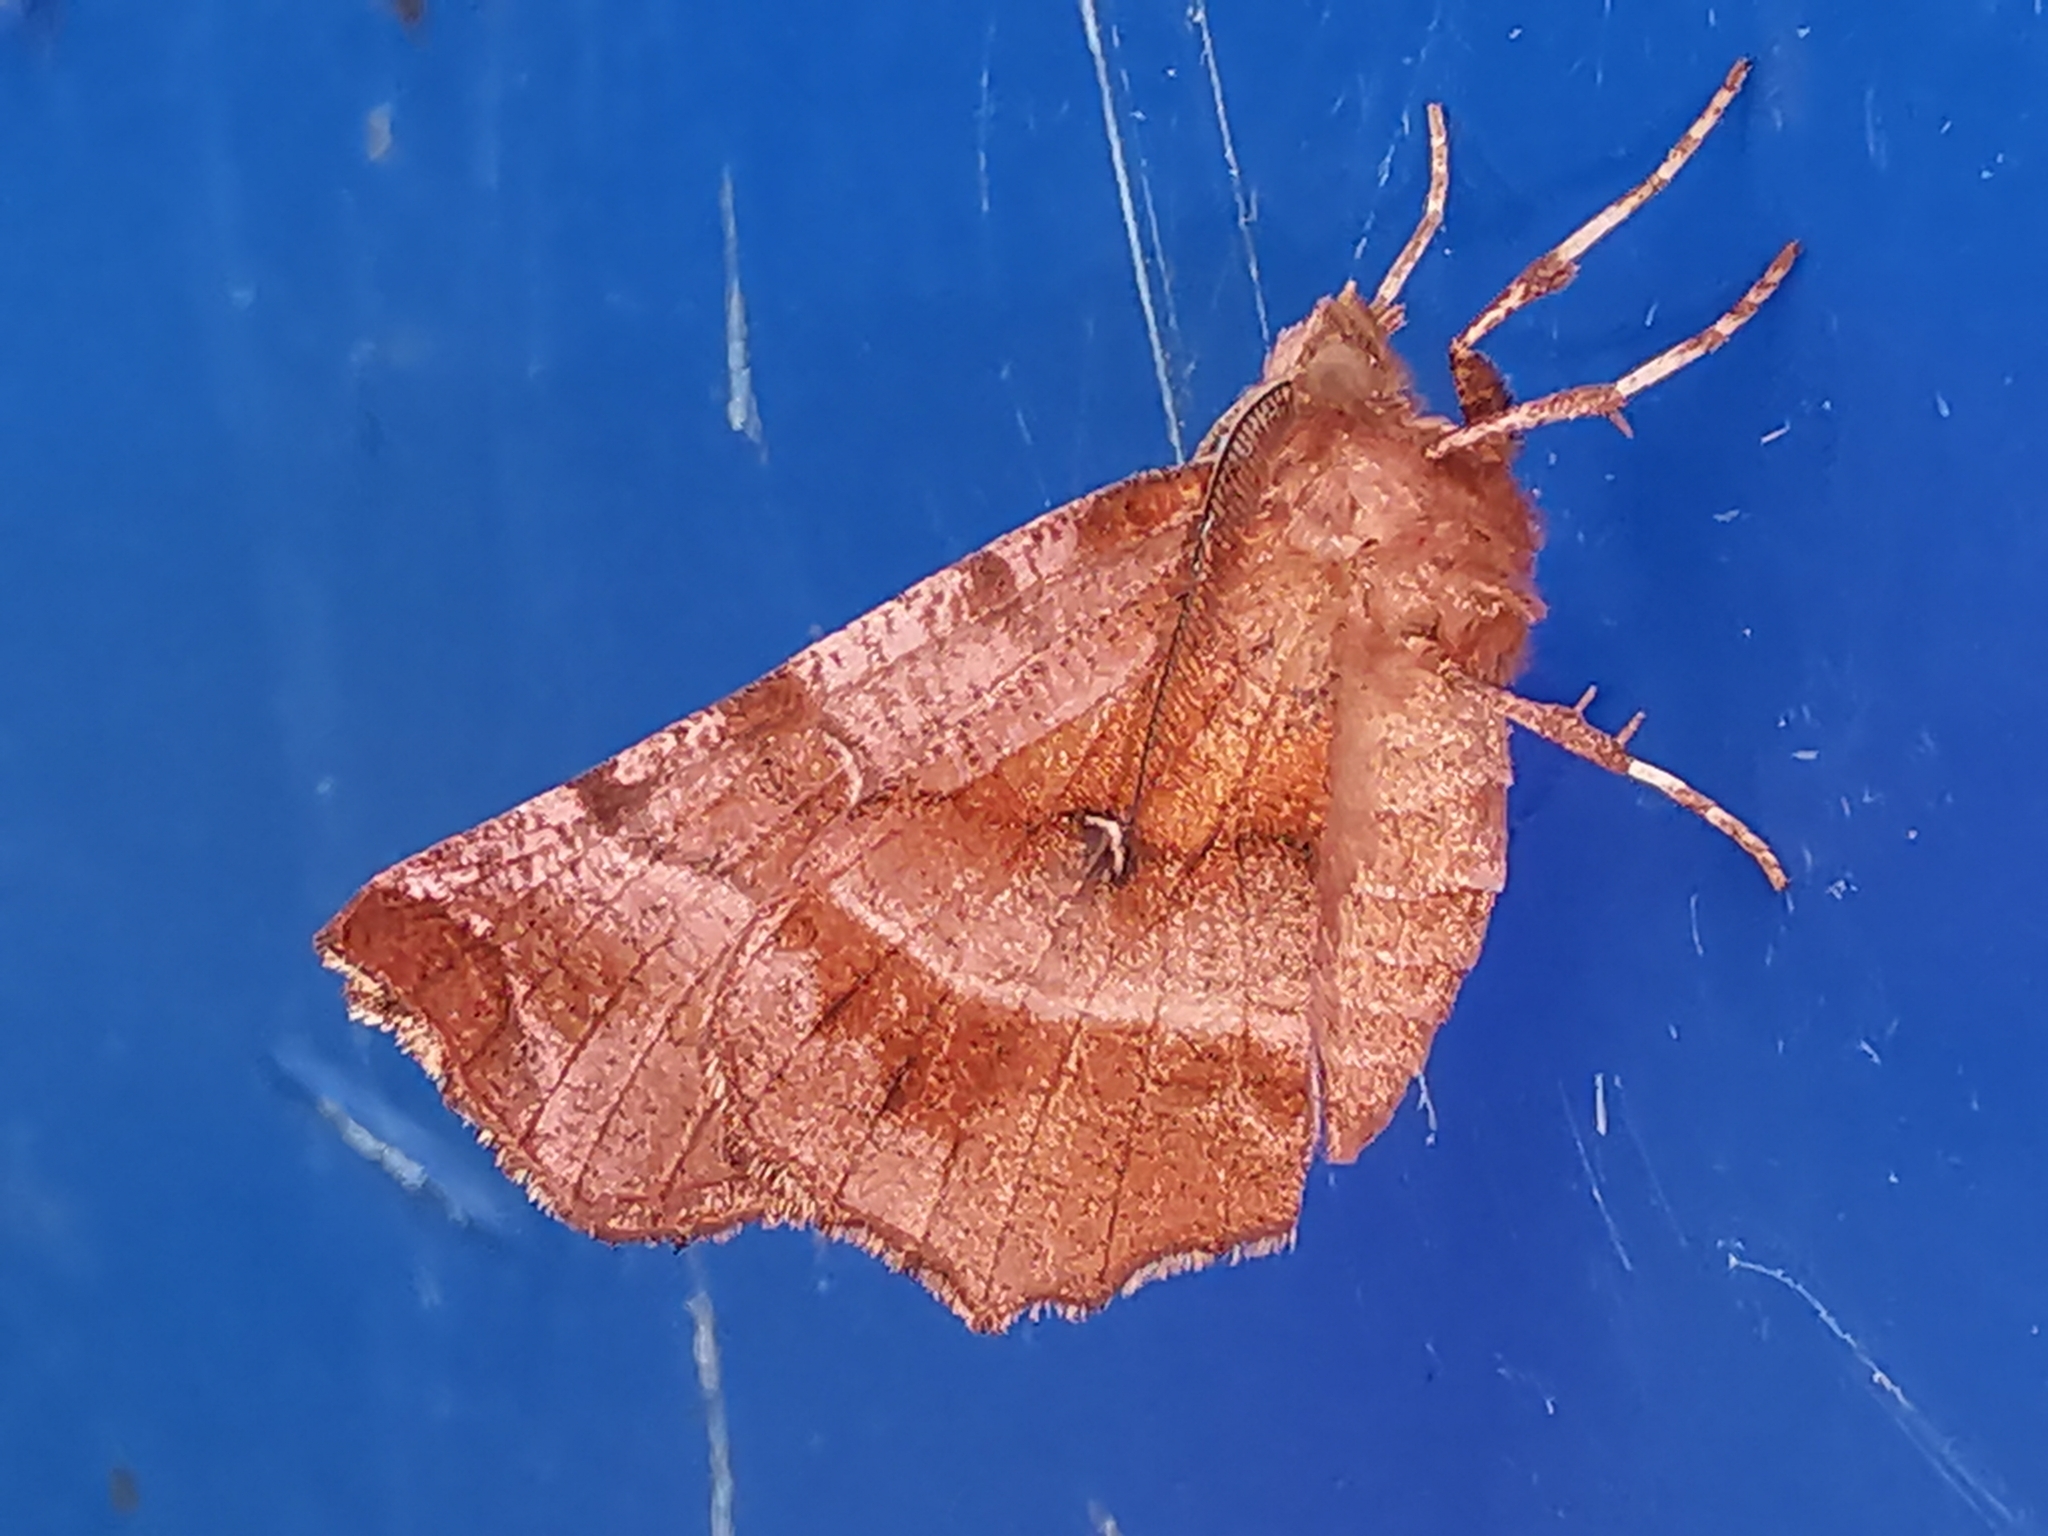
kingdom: Animalia
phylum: Arthropoda
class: Insecta
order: Lepidoptera
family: Geometridae
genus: Selenia
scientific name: Selenia dentaria
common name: Early thorn
